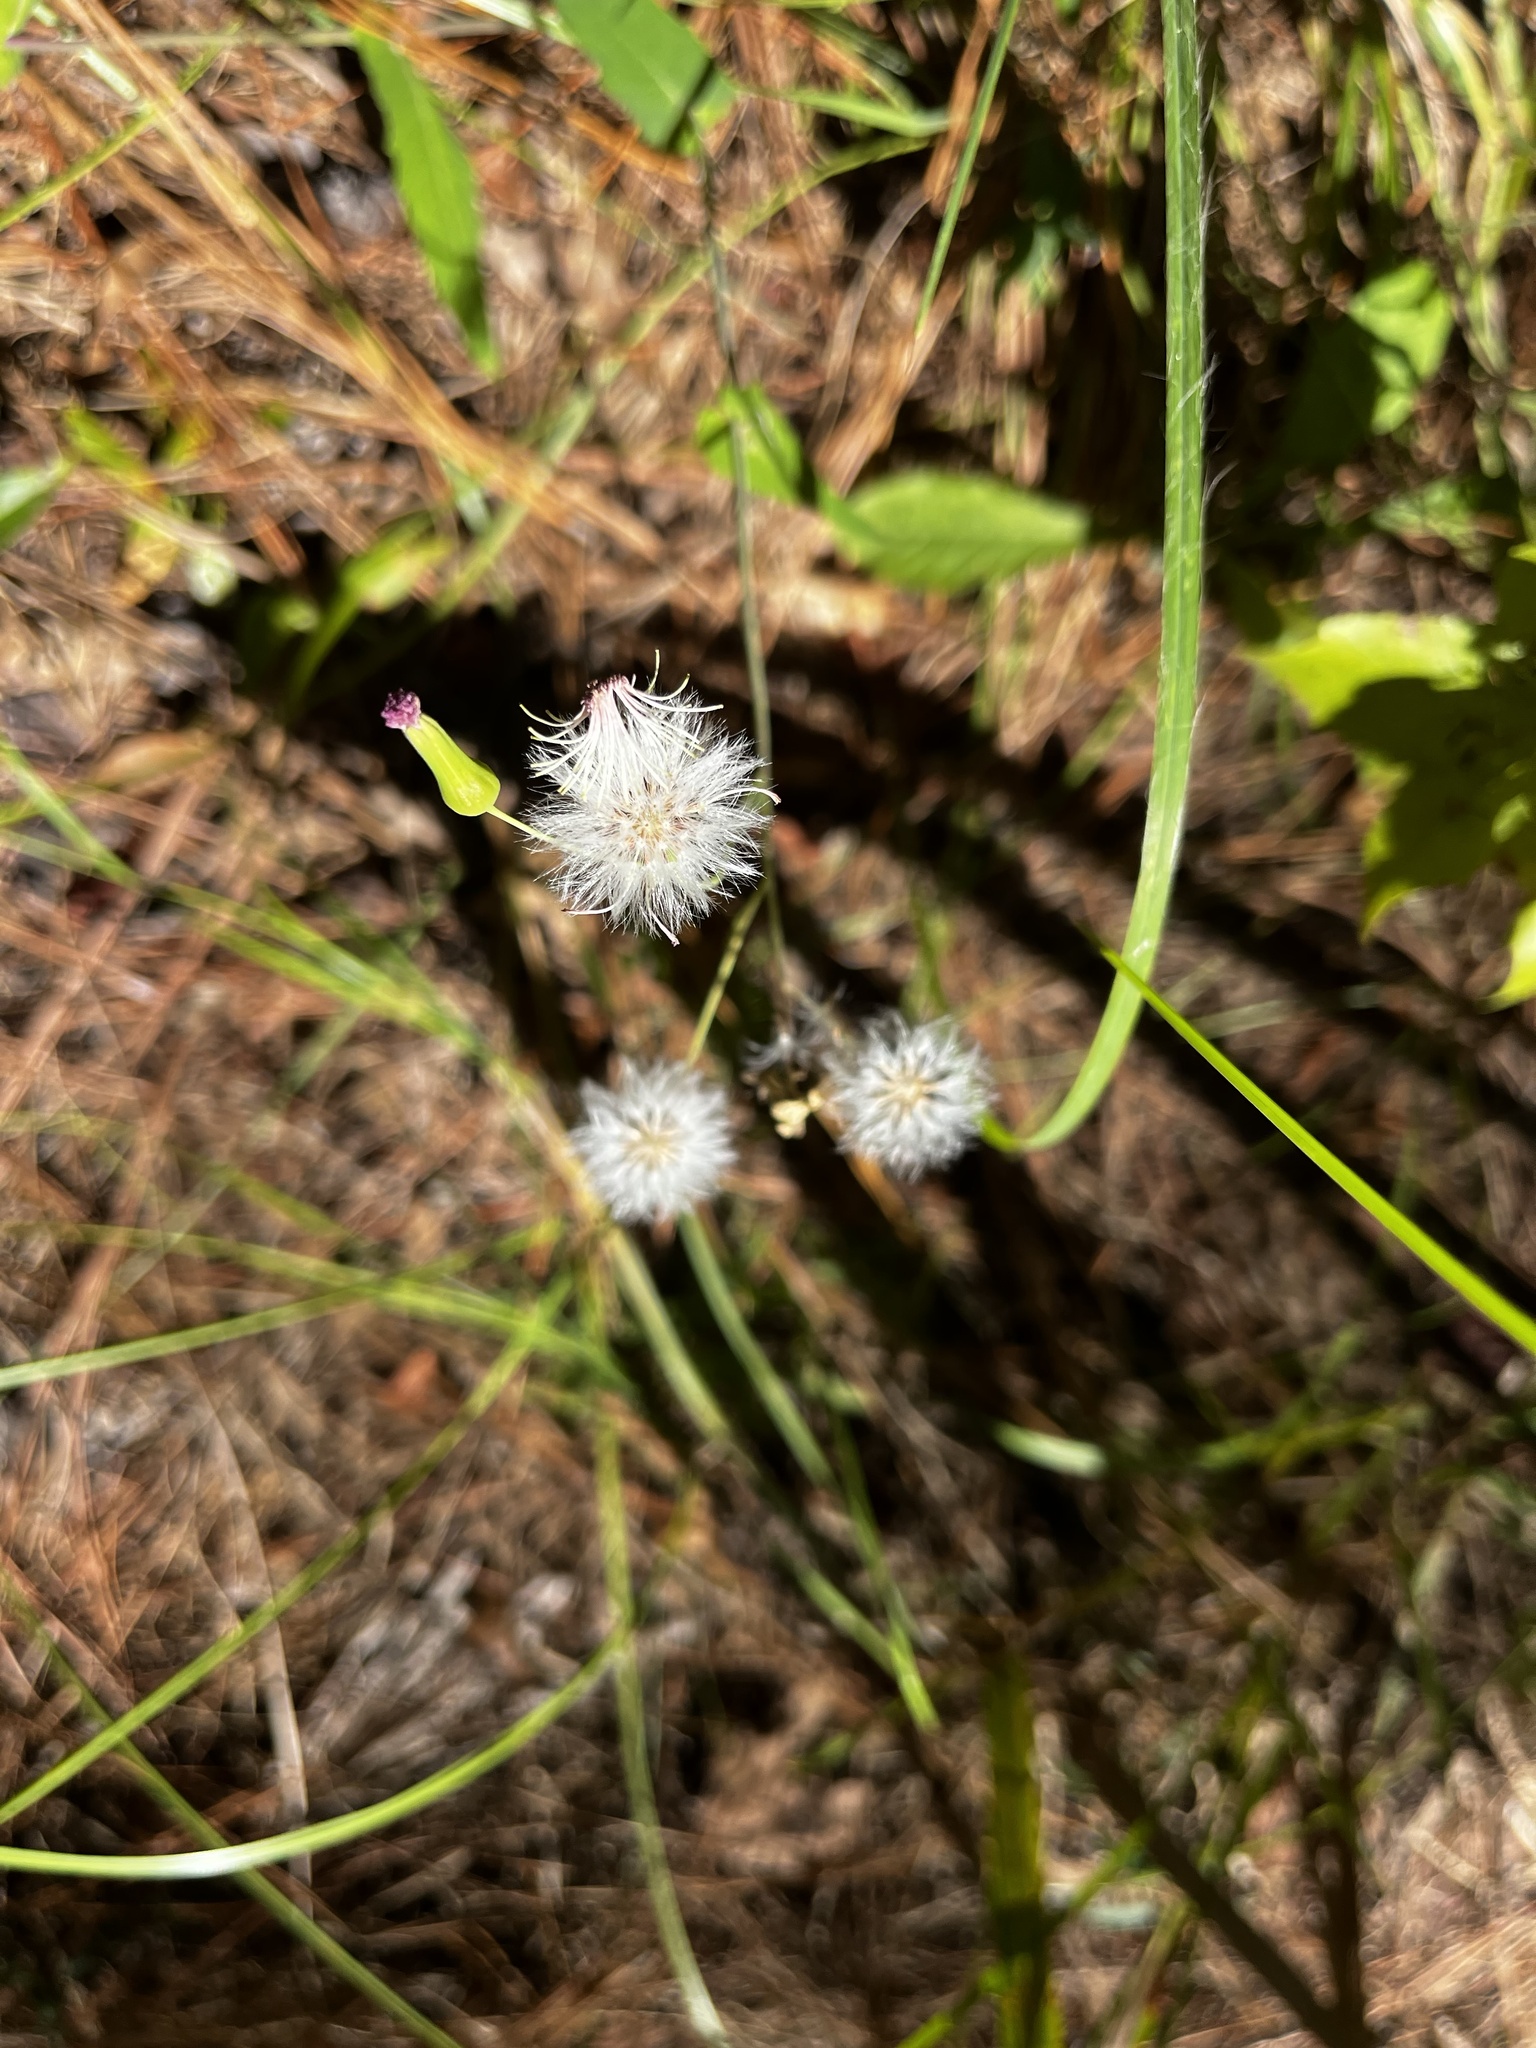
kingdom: Plantae
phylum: Tracheophyta
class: Magnoliopsida
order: Asterales
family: Asteraceae
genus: Emilia
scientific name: Emilia sonchifolia
